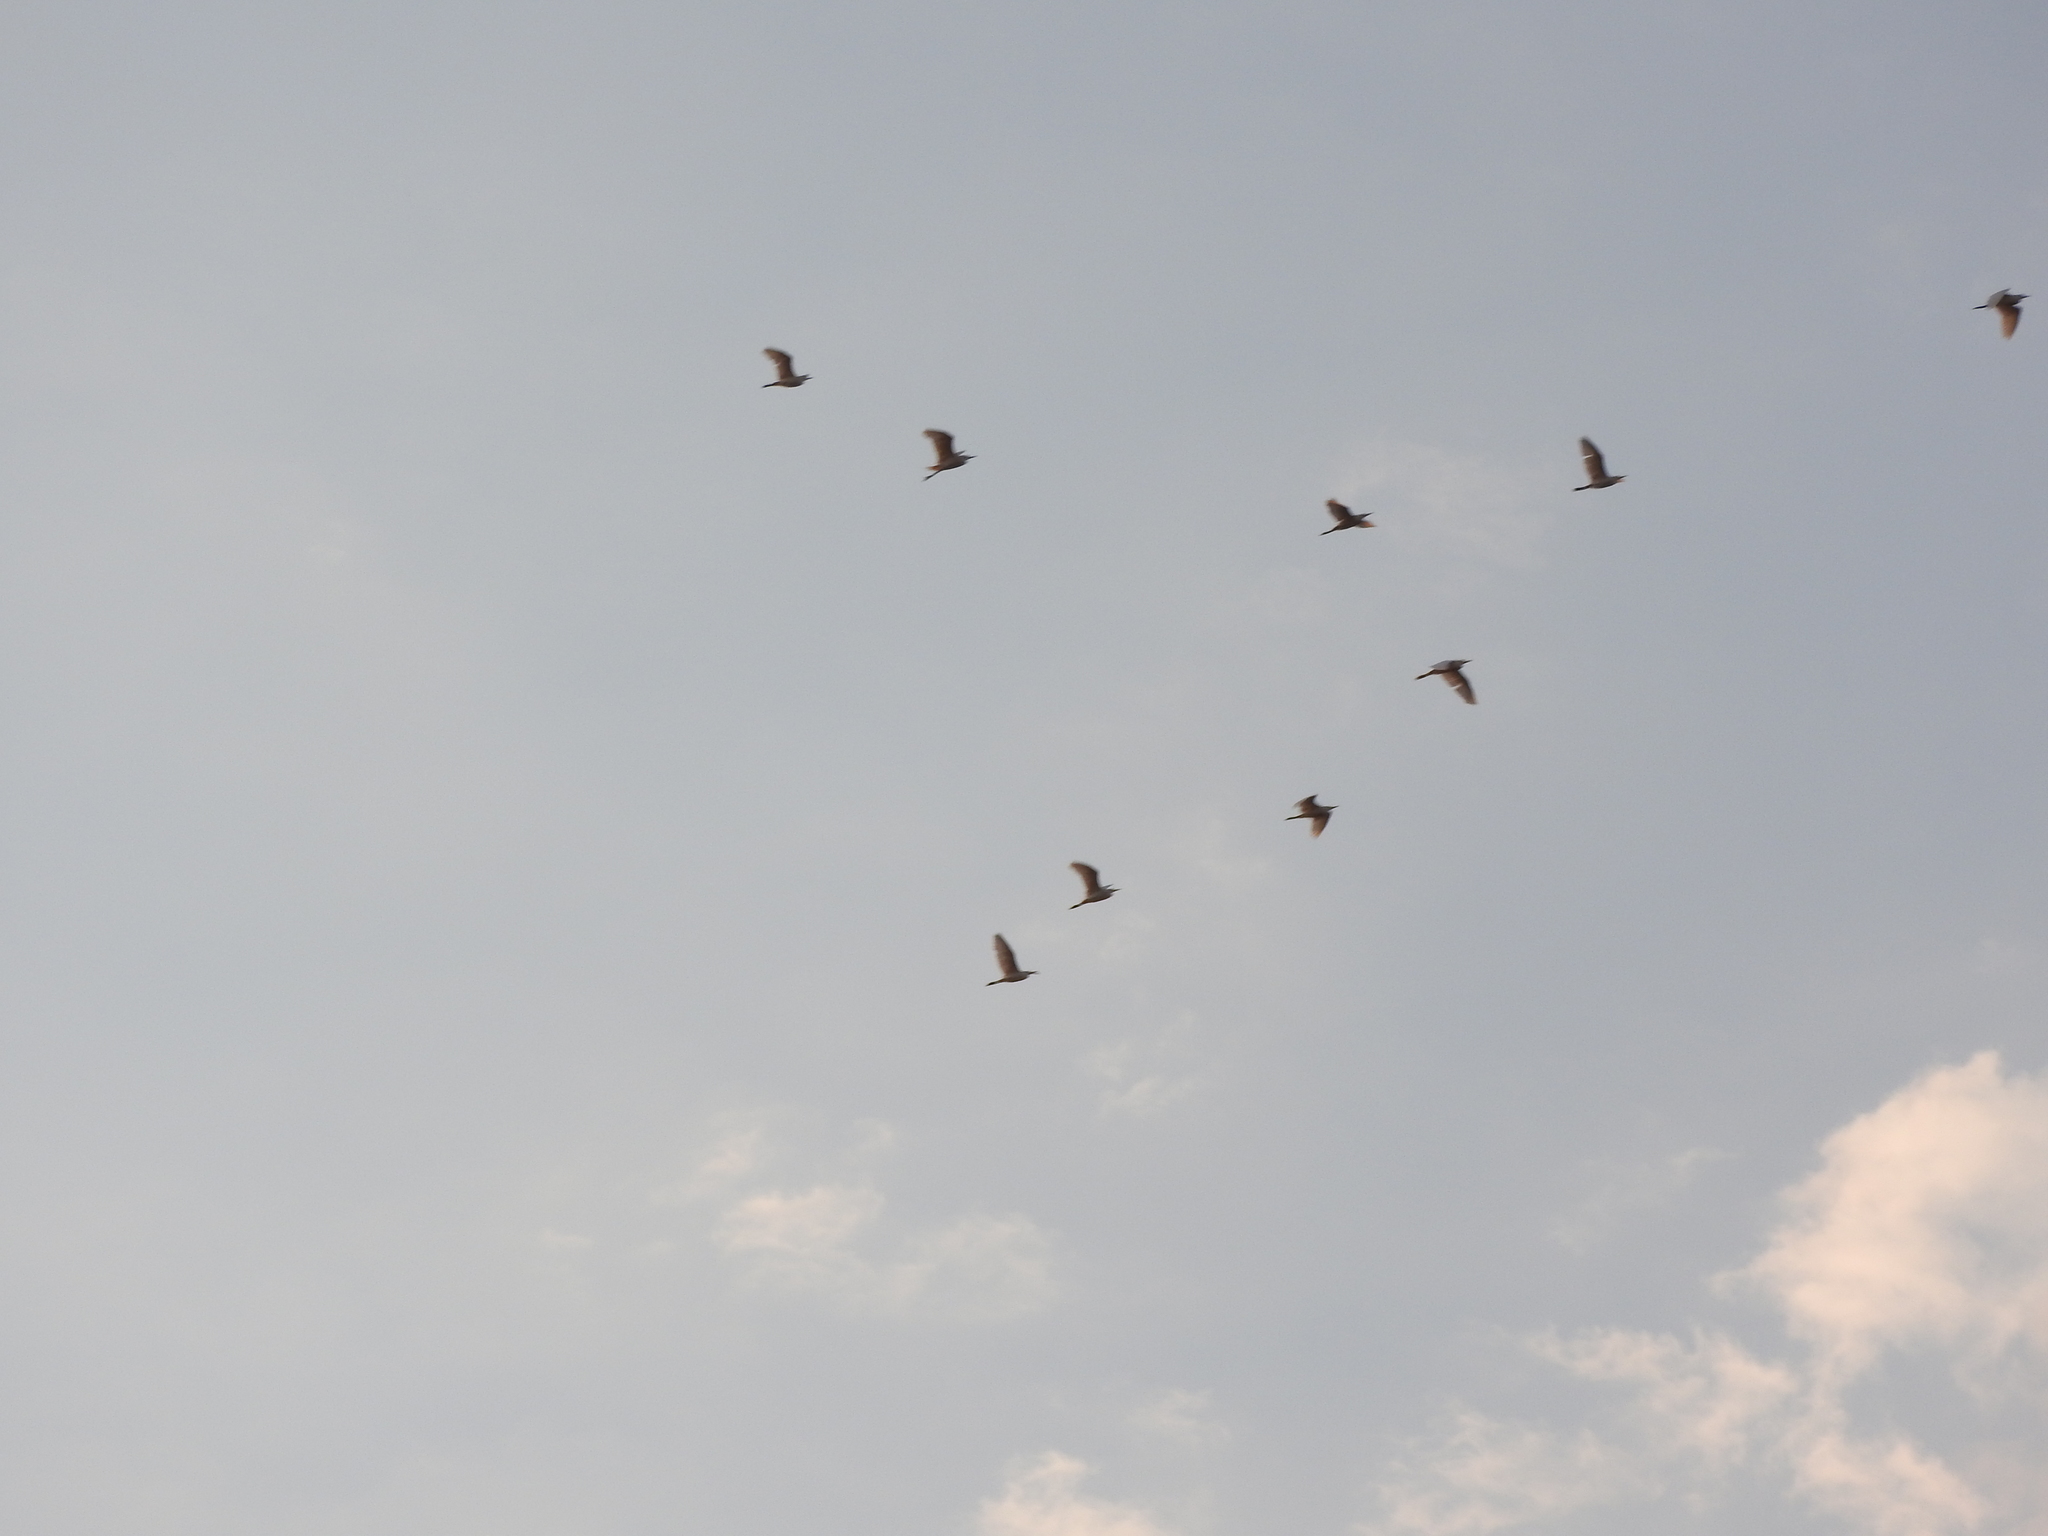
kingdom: Animalia
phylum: Chordata
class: Aves
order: Pelecaniformes
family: Ardeidae
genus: Bubulcus
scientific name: Bubulcus ibis
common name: Cattle egret
